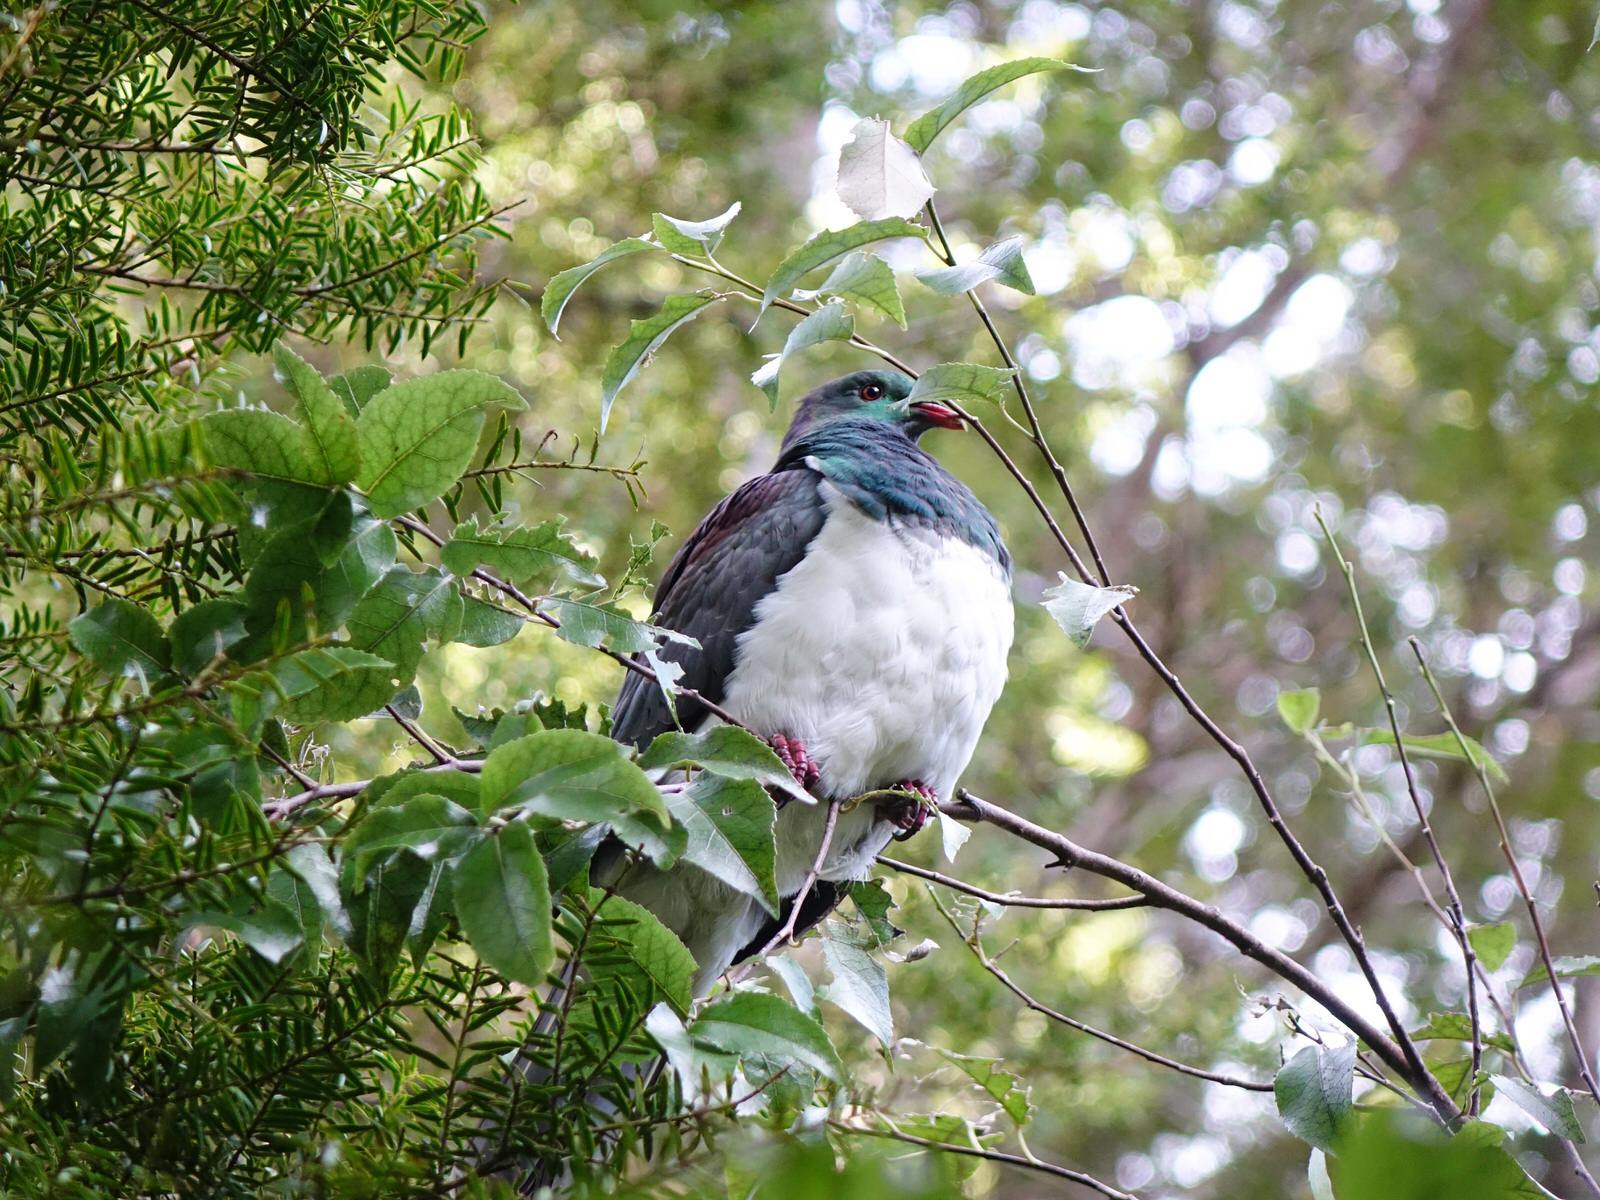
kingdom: Animalia
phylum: Chordata
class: Aves
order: Columbiformes
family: Columbidae
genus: Hemiphaga
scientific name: Hemiphaga novaeseelandiae
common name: New zealand pigeon
